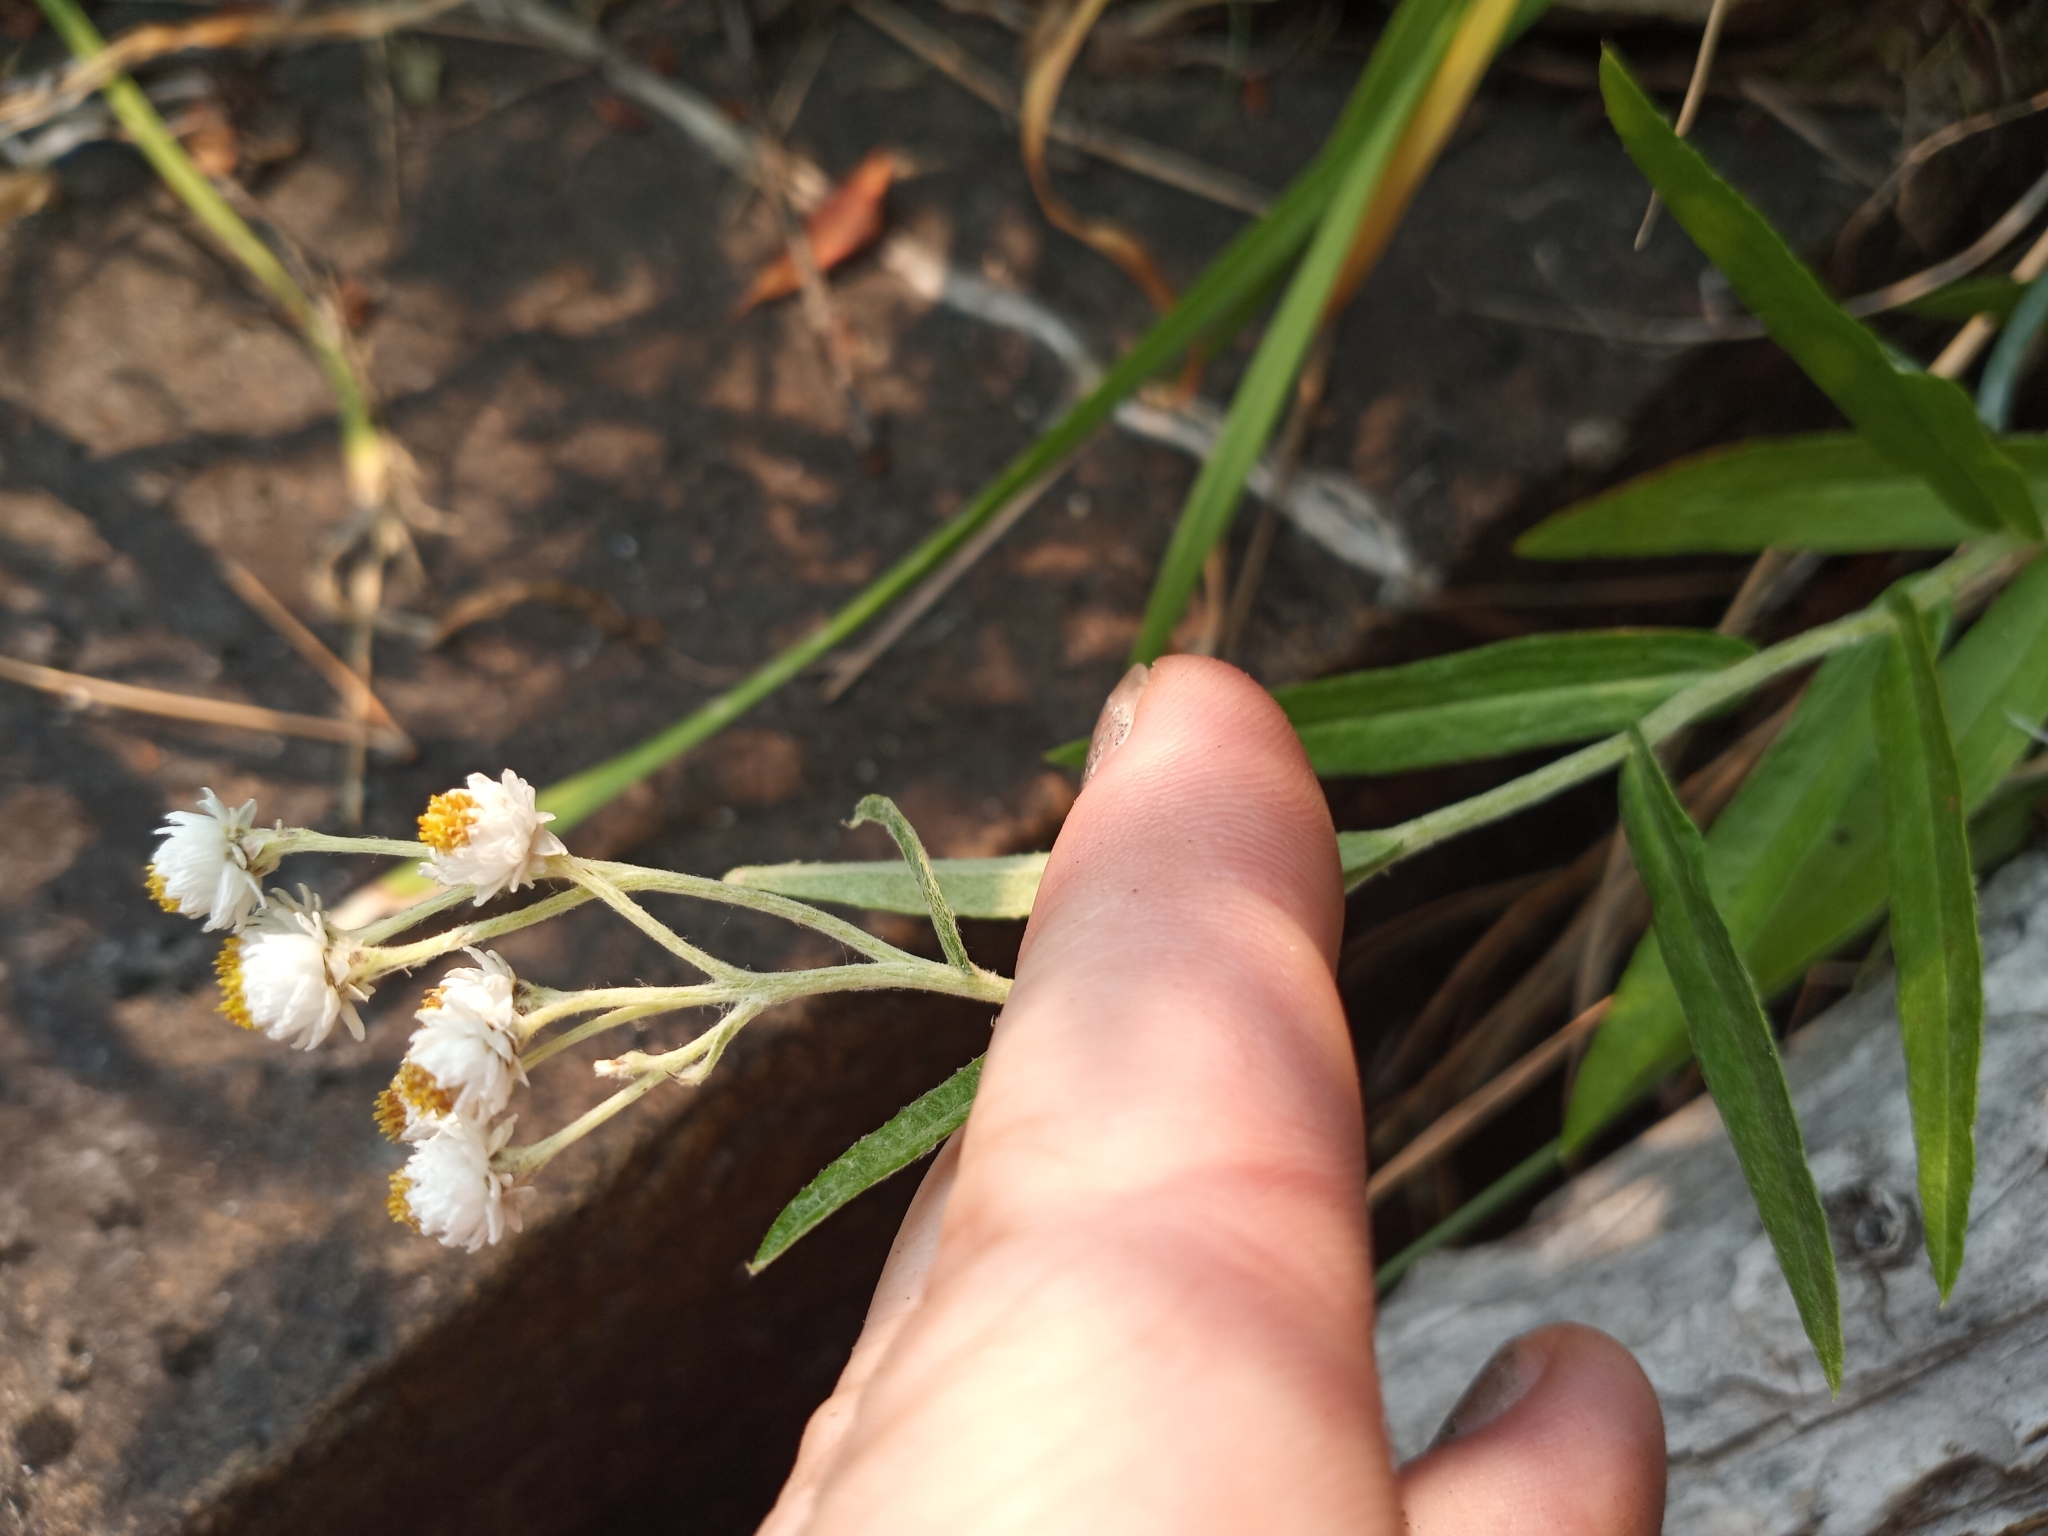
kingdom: Plantae
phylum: Tracheophyta
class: Magnoliopsida
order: Asterales
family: Asteraceae
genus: Anaphalis
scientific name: Anaphalis margaritacea
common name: Pearly everlasting
